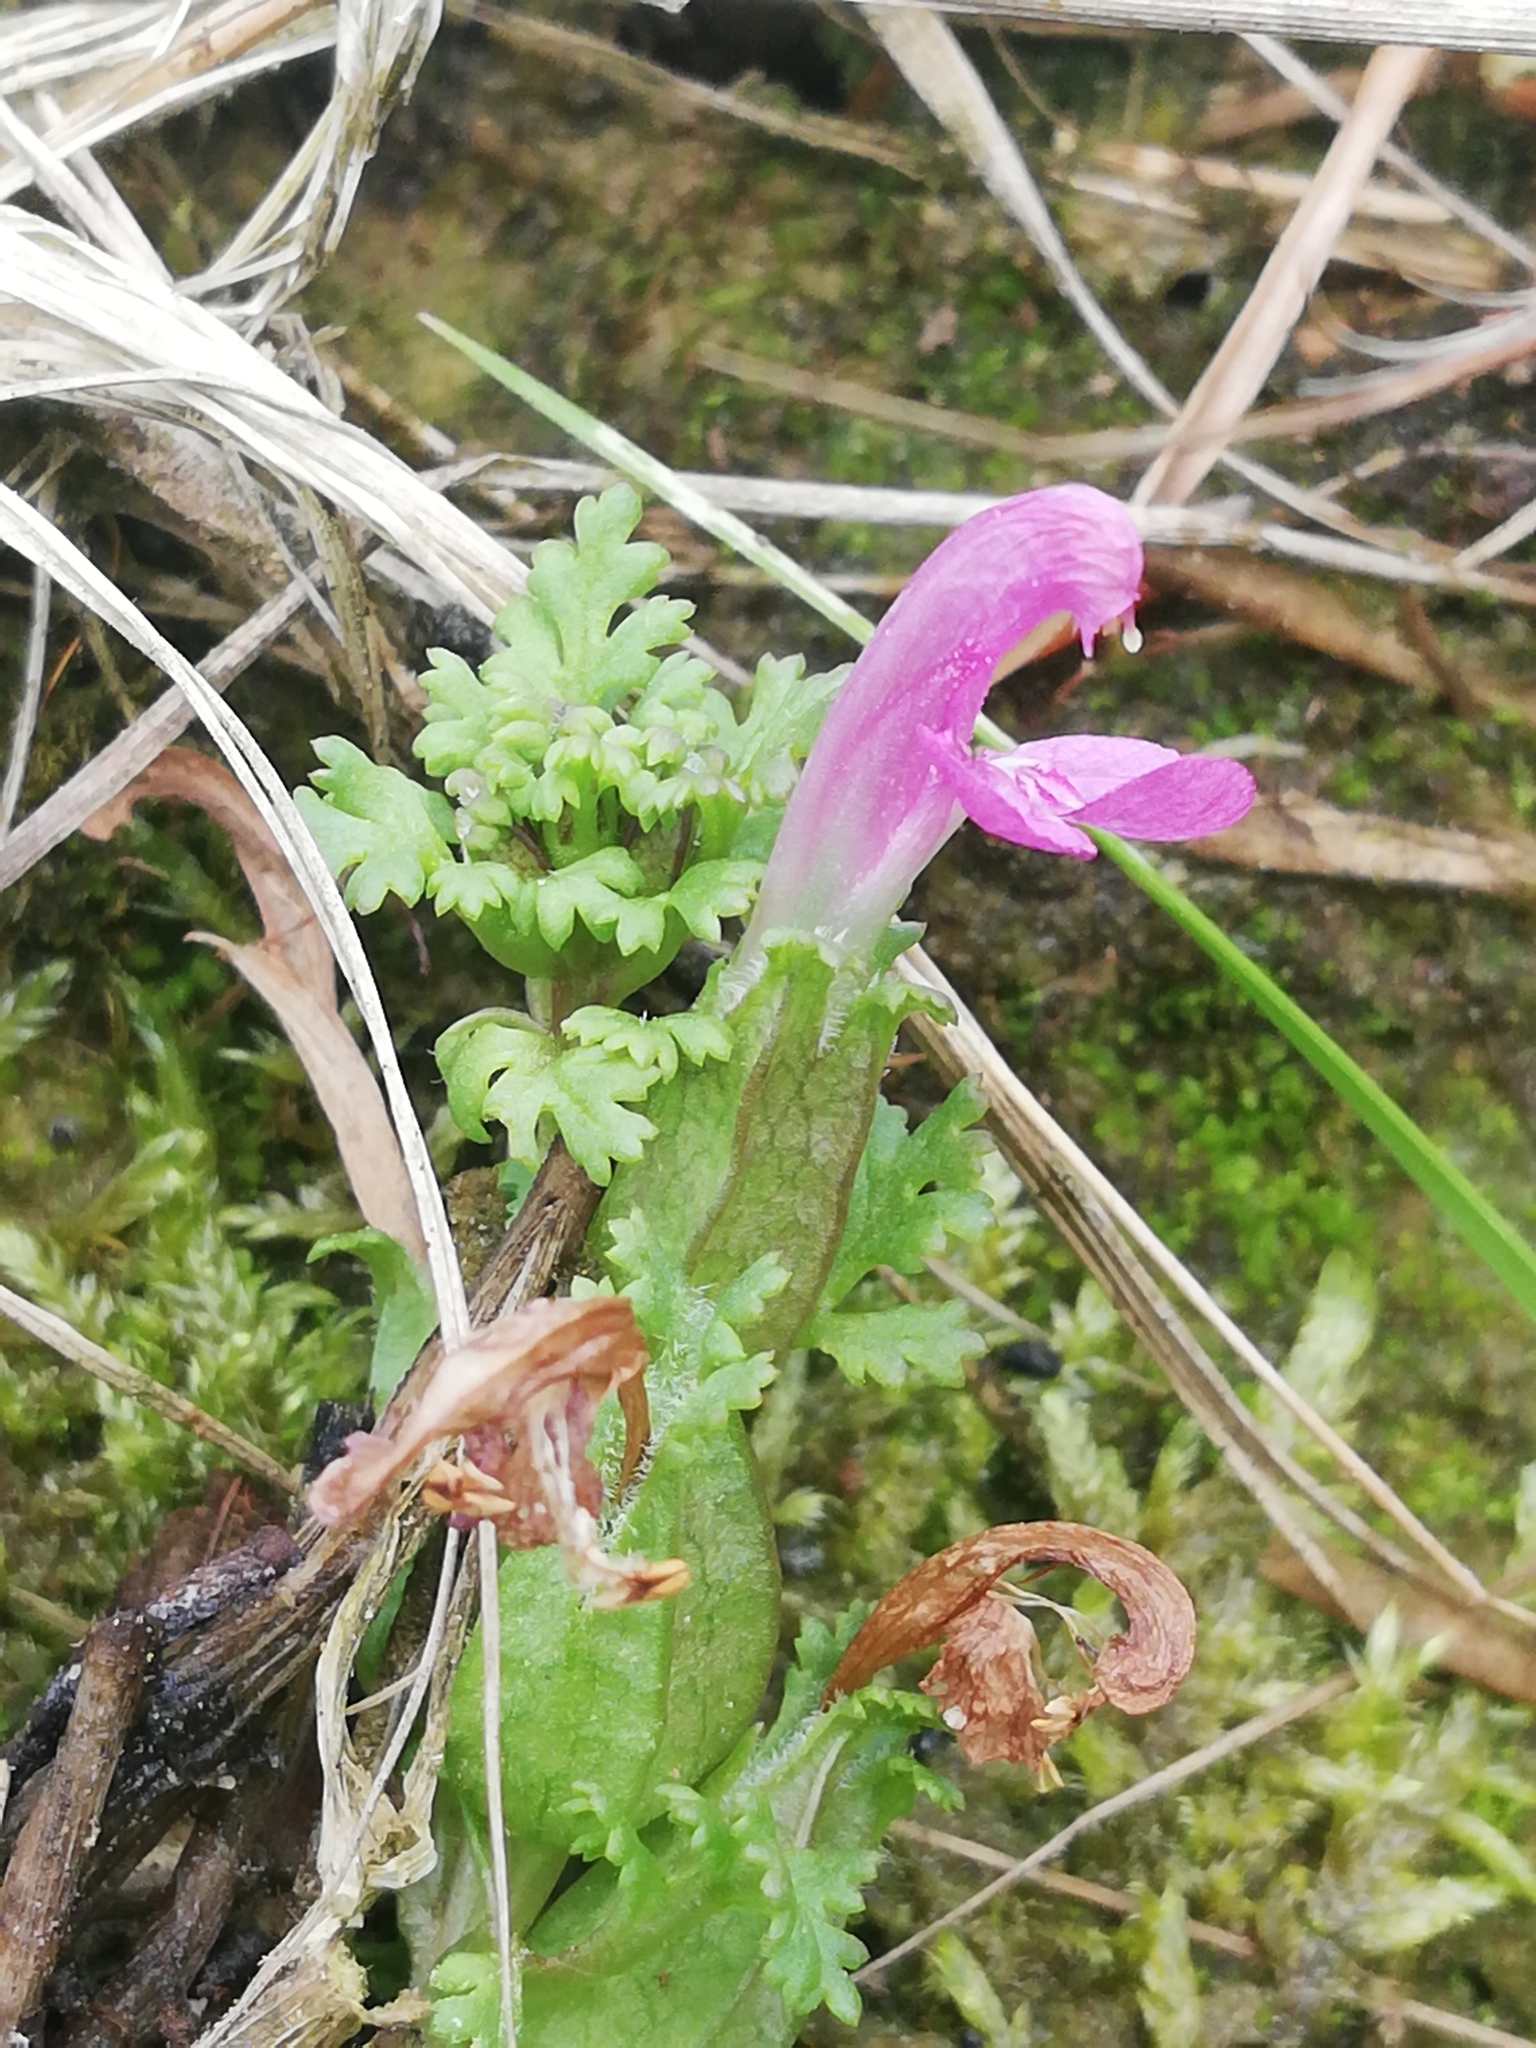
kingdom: Plantae
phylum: Tracheophyta
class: Magnoliopsida
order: Lamiales
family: Orobanchaceae
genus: Pedicularis
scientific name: Pedicularis sylvatica
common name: Lousewort
